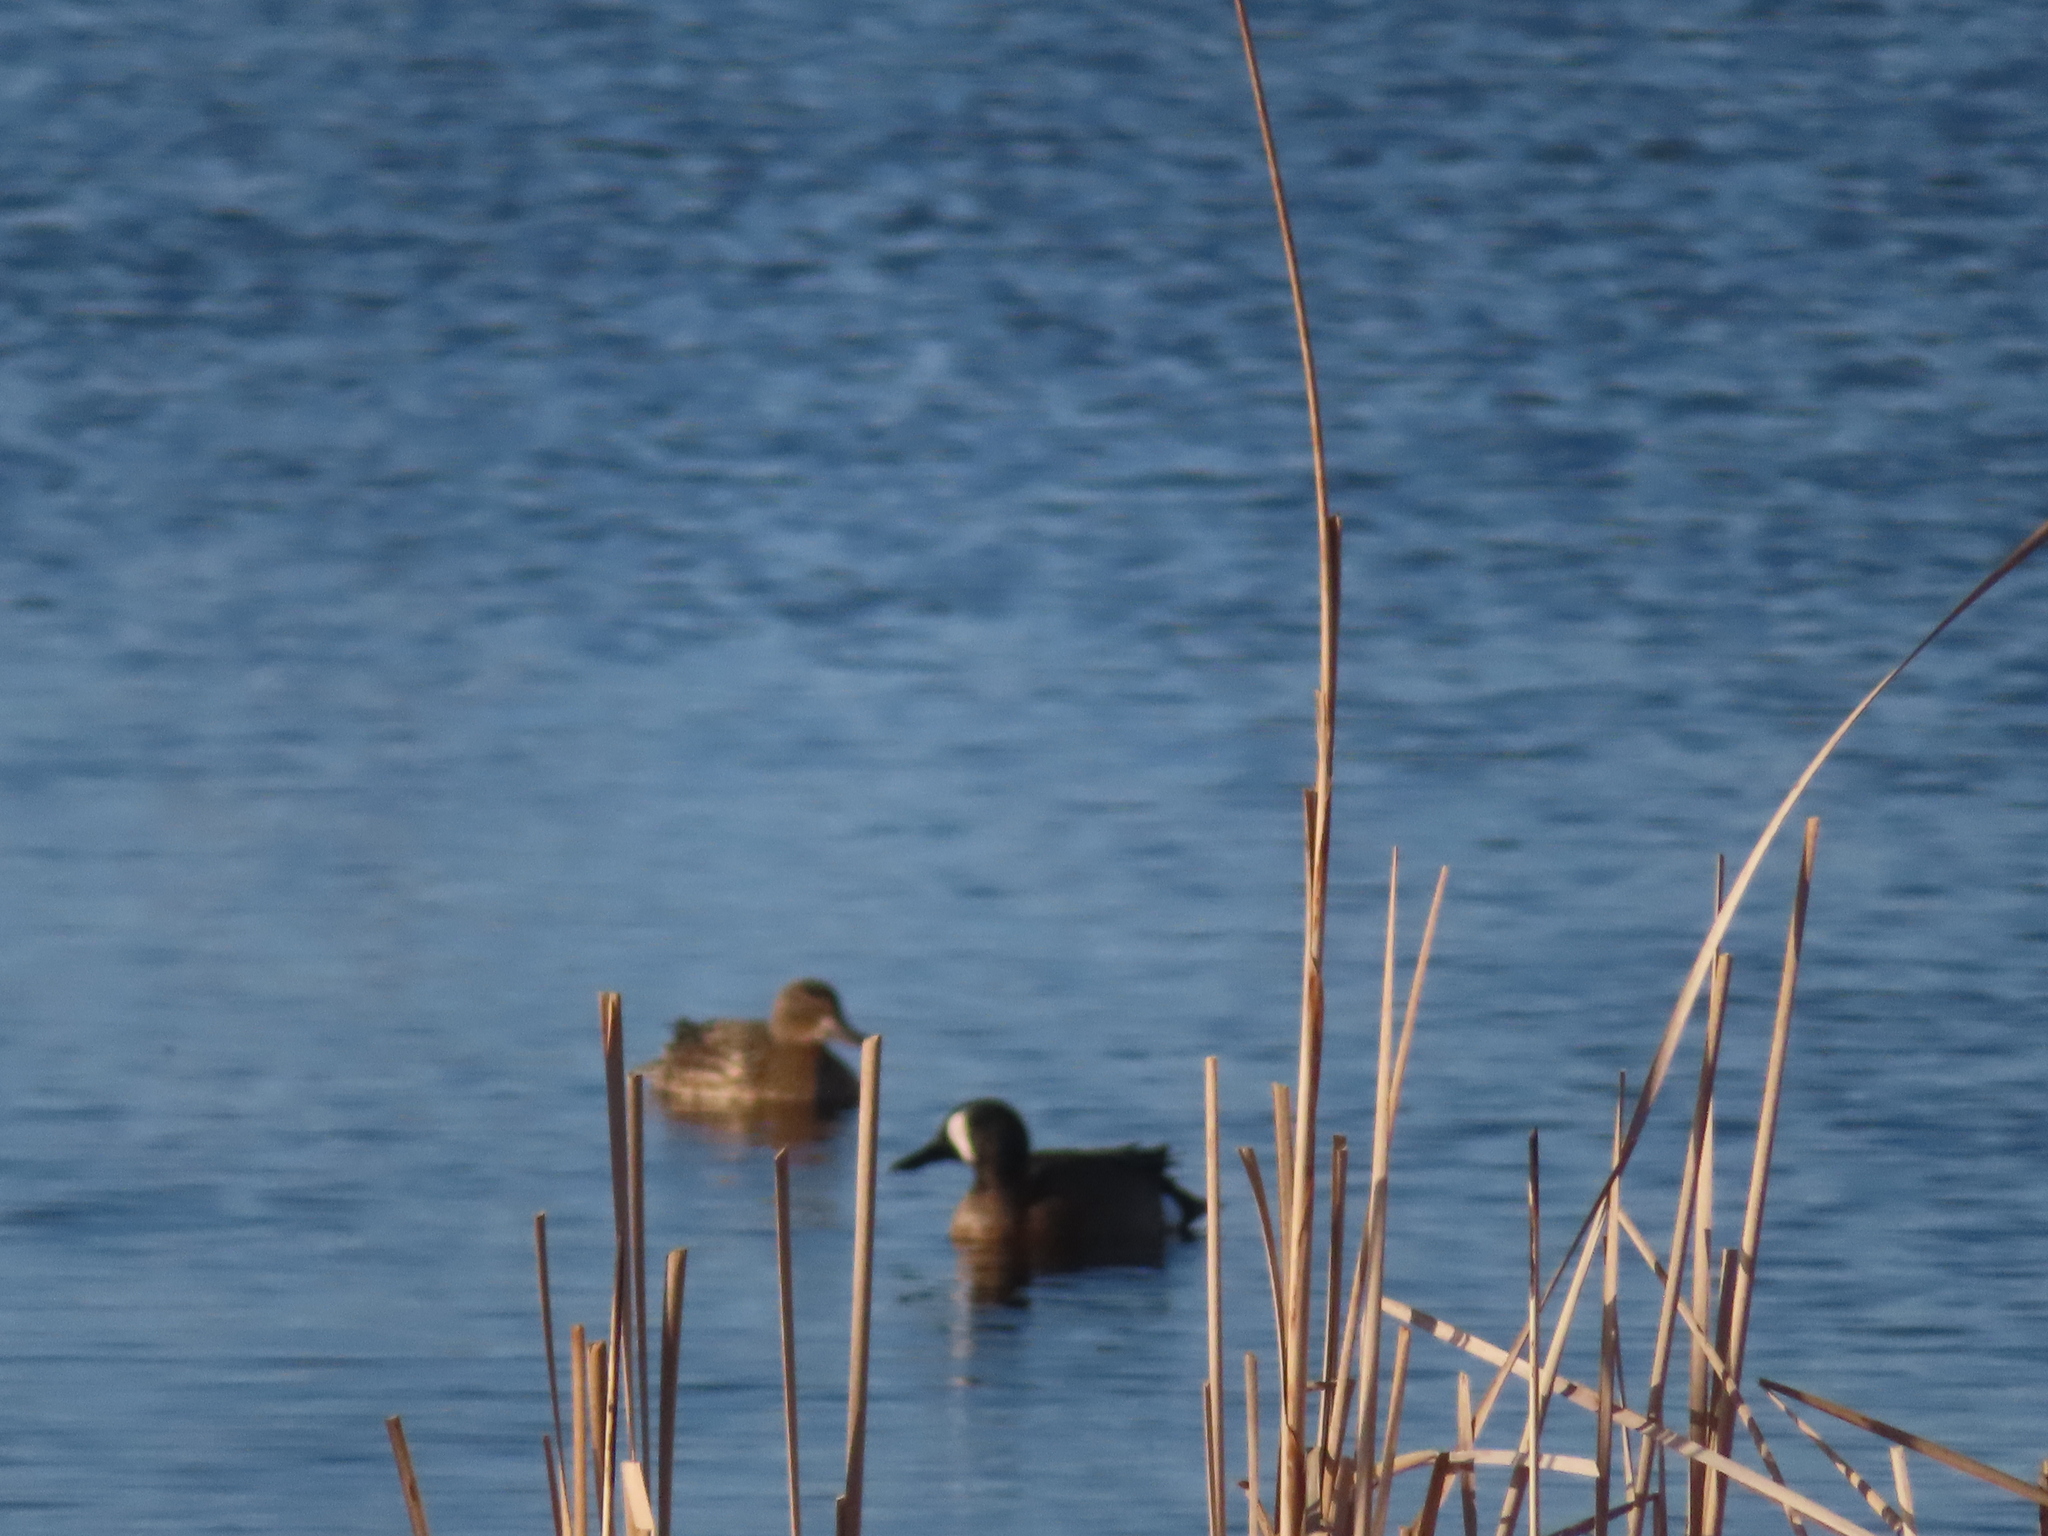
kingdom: Animalia
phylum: Chordata
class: Aves
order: Anseriformes
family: Anatidae
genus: Spatula
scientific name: Spatula discors
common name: Blue-winged teal
